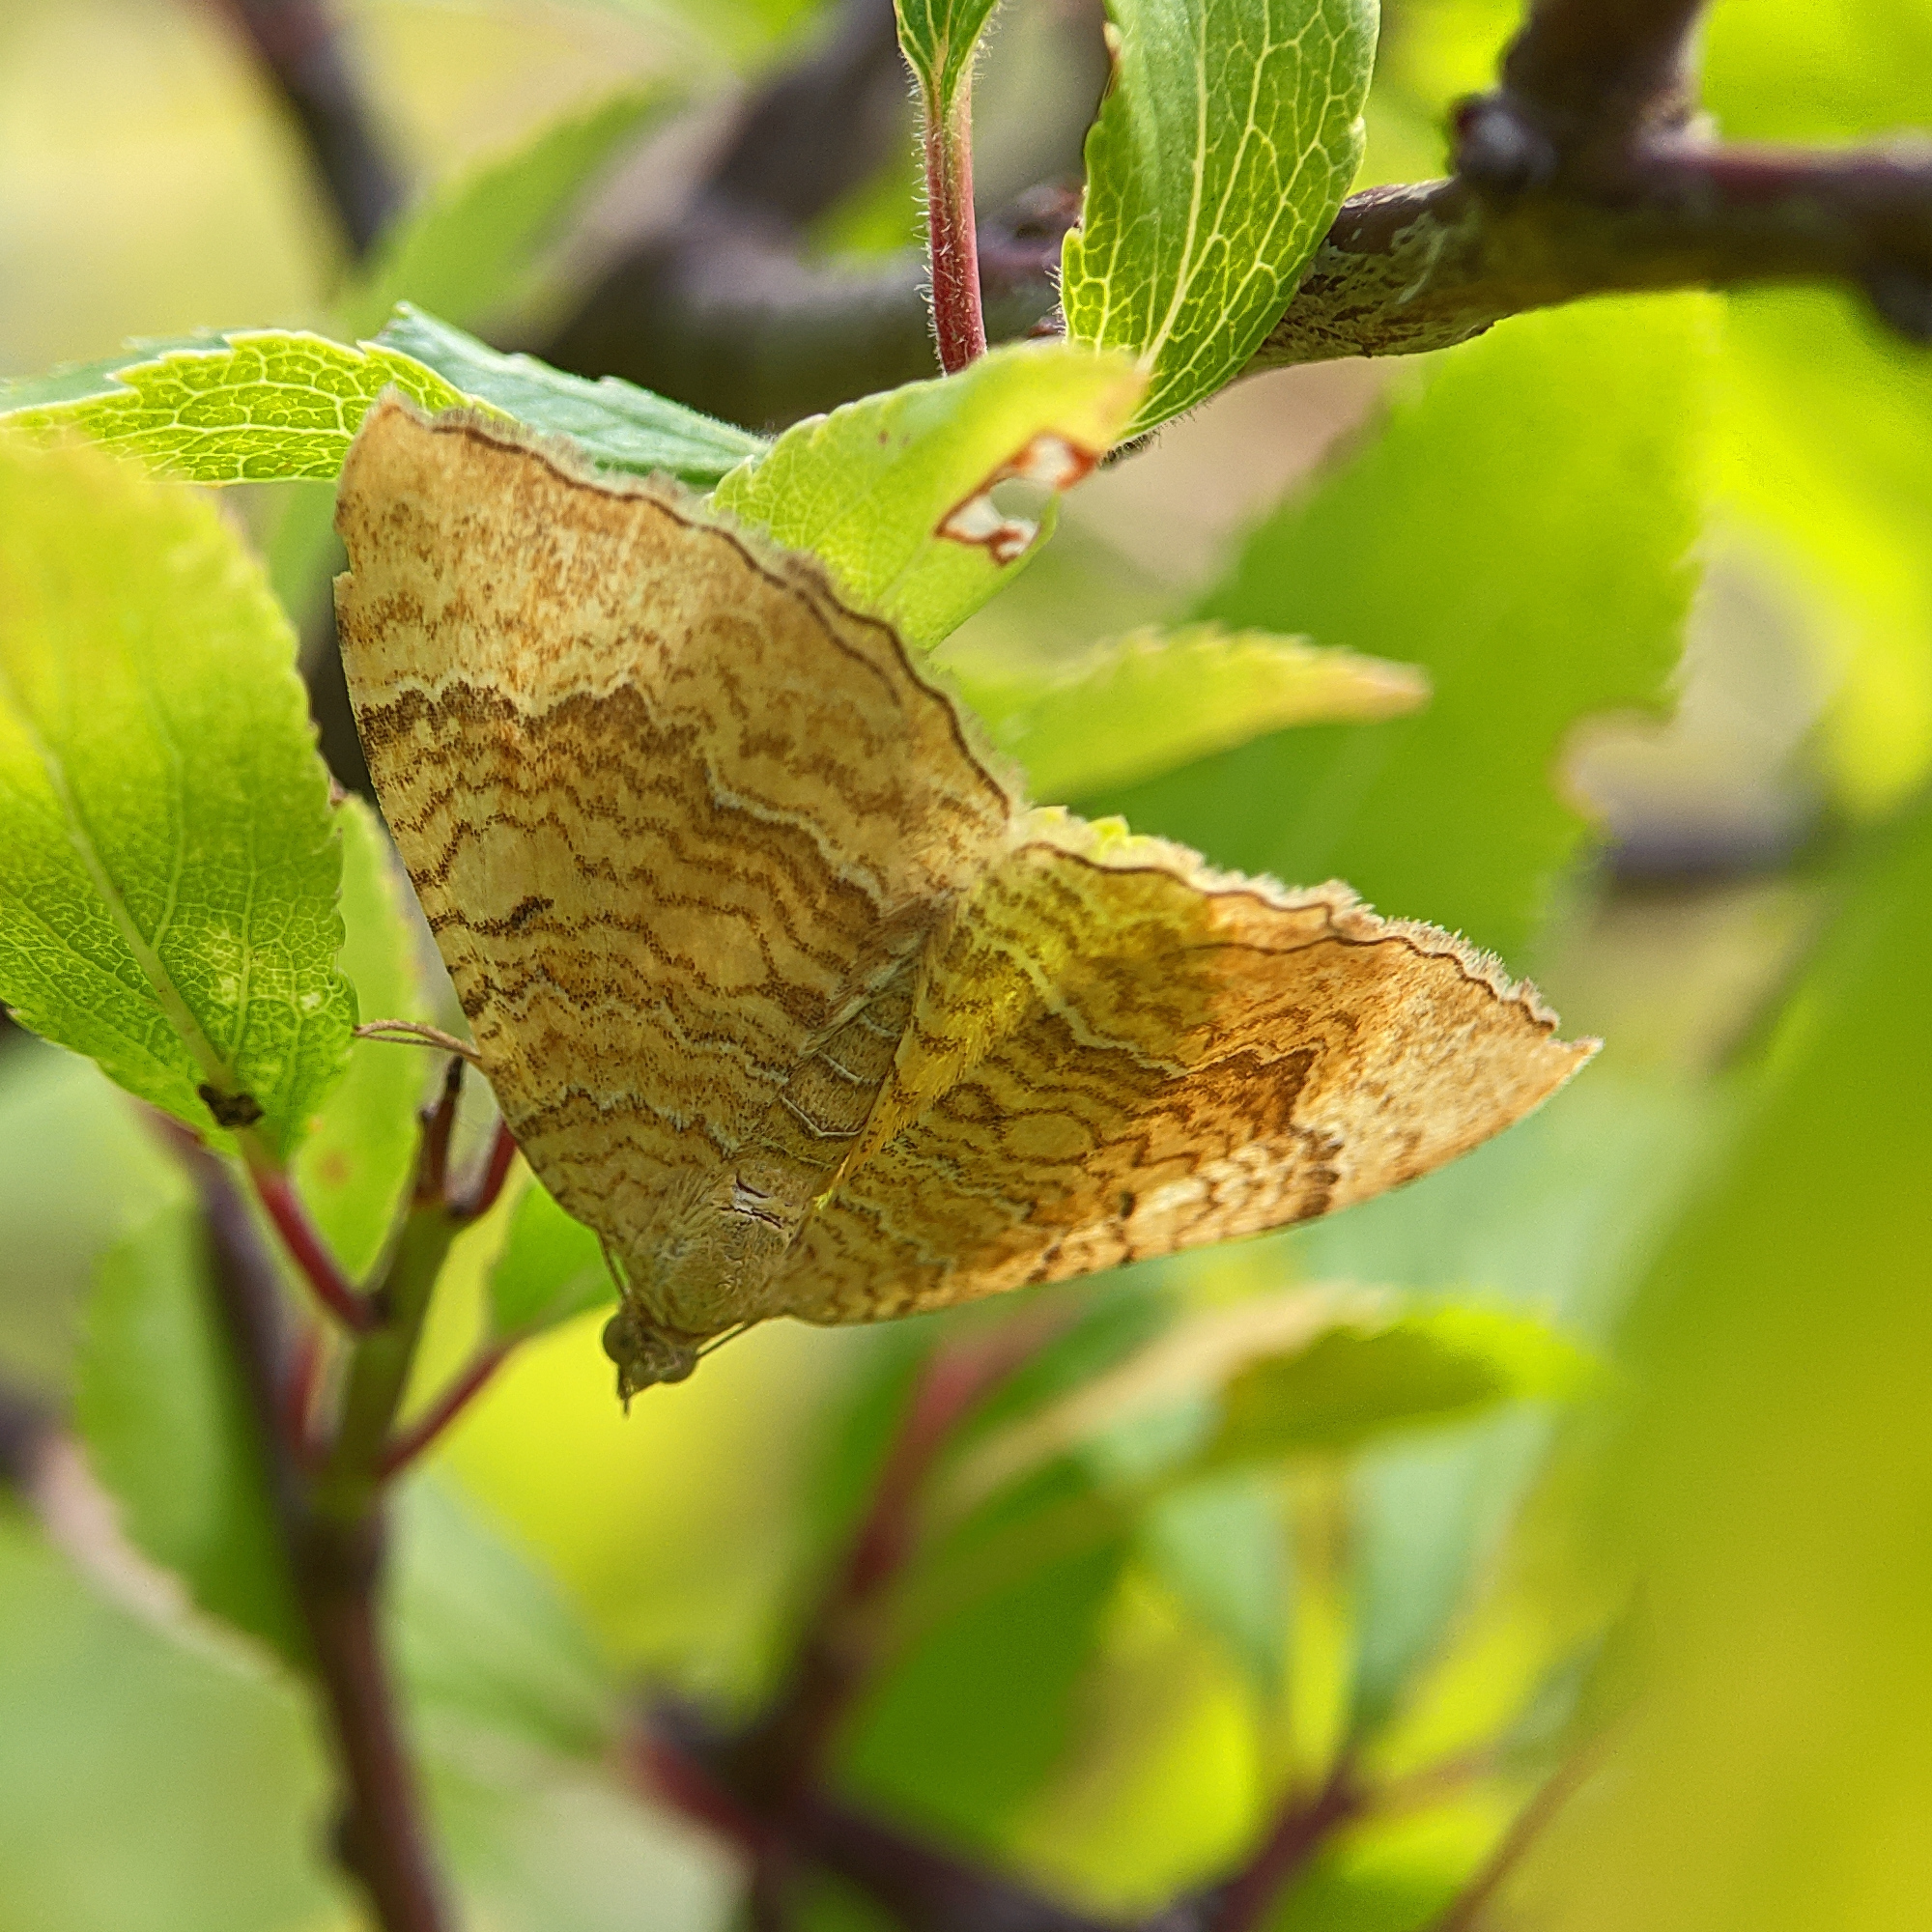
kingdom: Animalia
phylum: Arthropoda
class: Insecta
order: Lepidoptera
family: Geometridae
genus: Camptogramma
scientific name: Camptogramma bilineata
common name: Yellow shell
